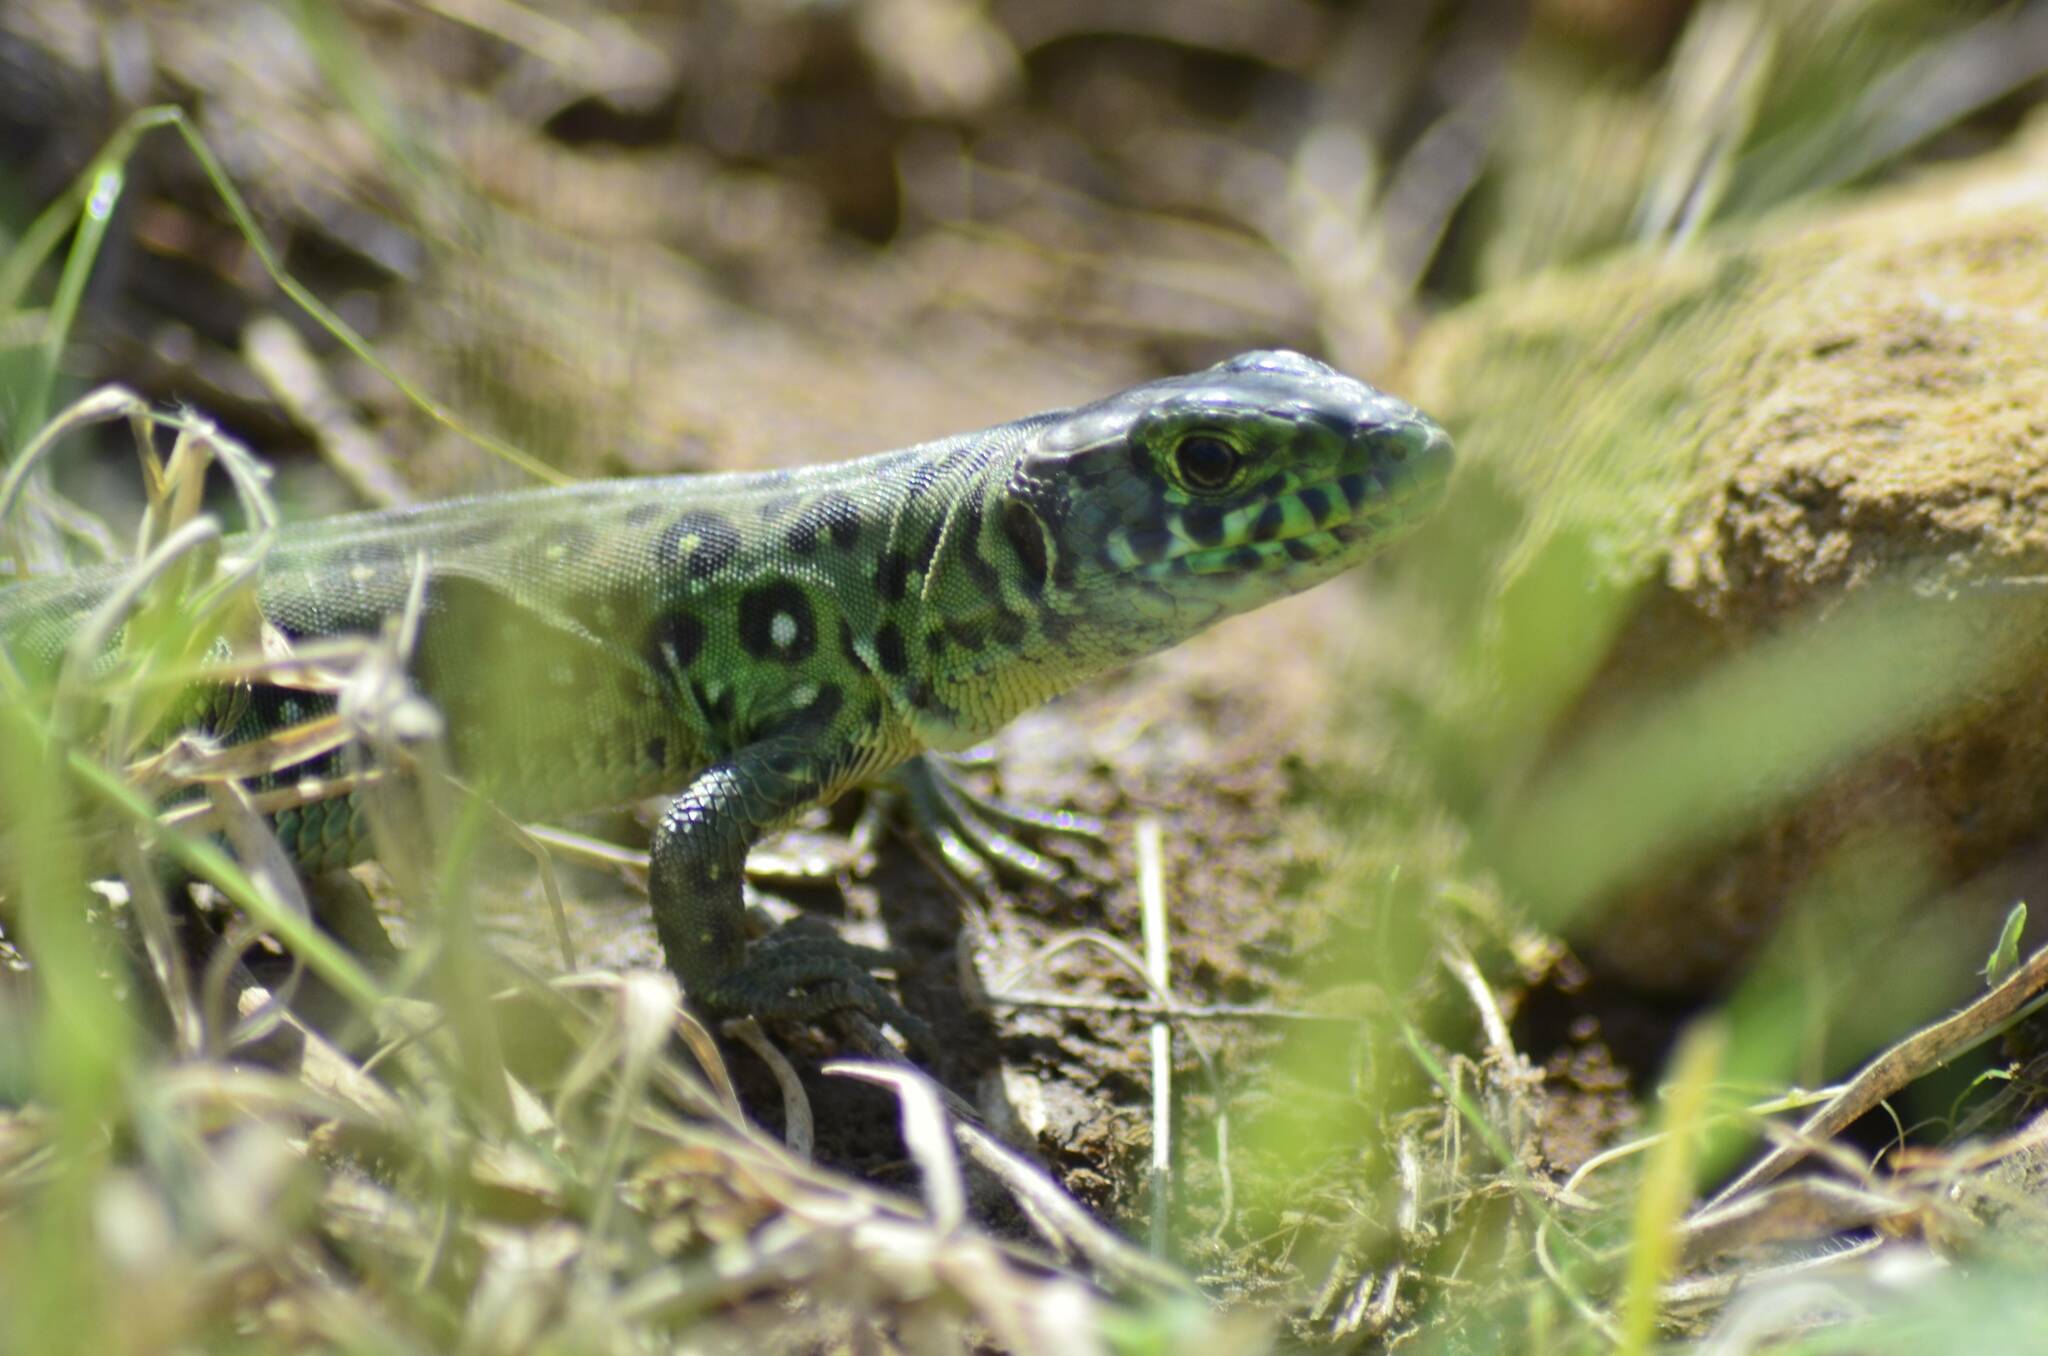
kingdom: Animalia
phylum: Chordata
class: Squamata
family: Lacertidae
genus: Timon
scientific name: Timon pater
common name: North african ocellated lizard
